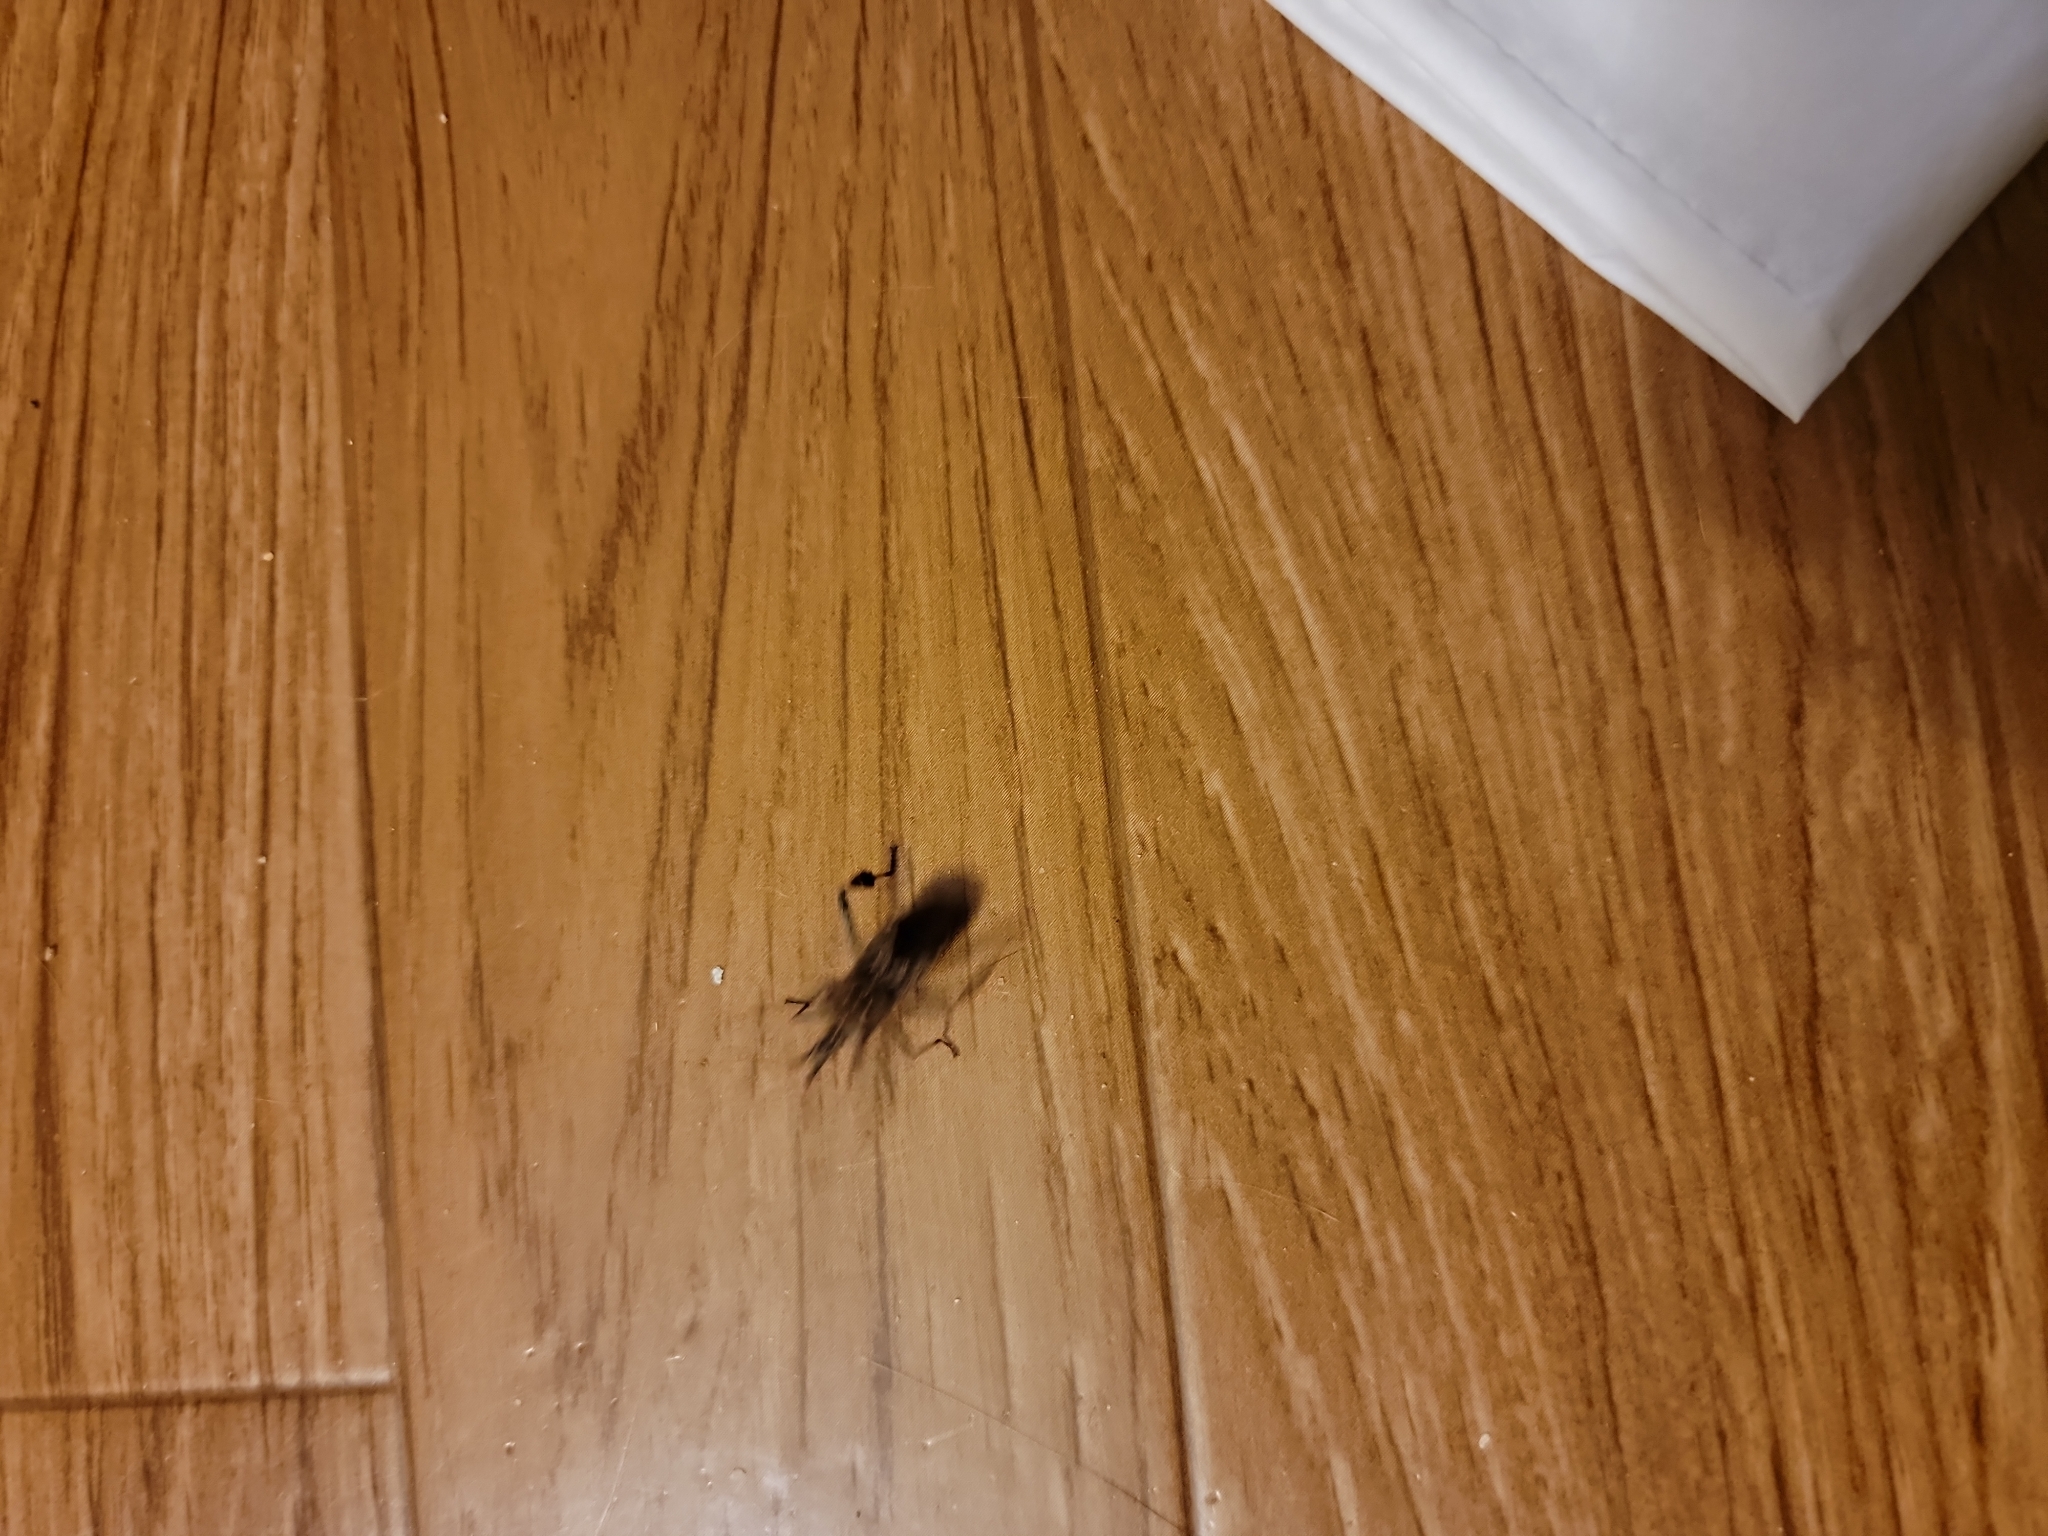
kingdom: Animalia
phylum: Arthropoda
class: Insecta
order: Hemiptera
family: Coreidae
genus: Leptoglossus
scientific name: Leptoglossus occidentalis
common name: Western conifer-seed bug
